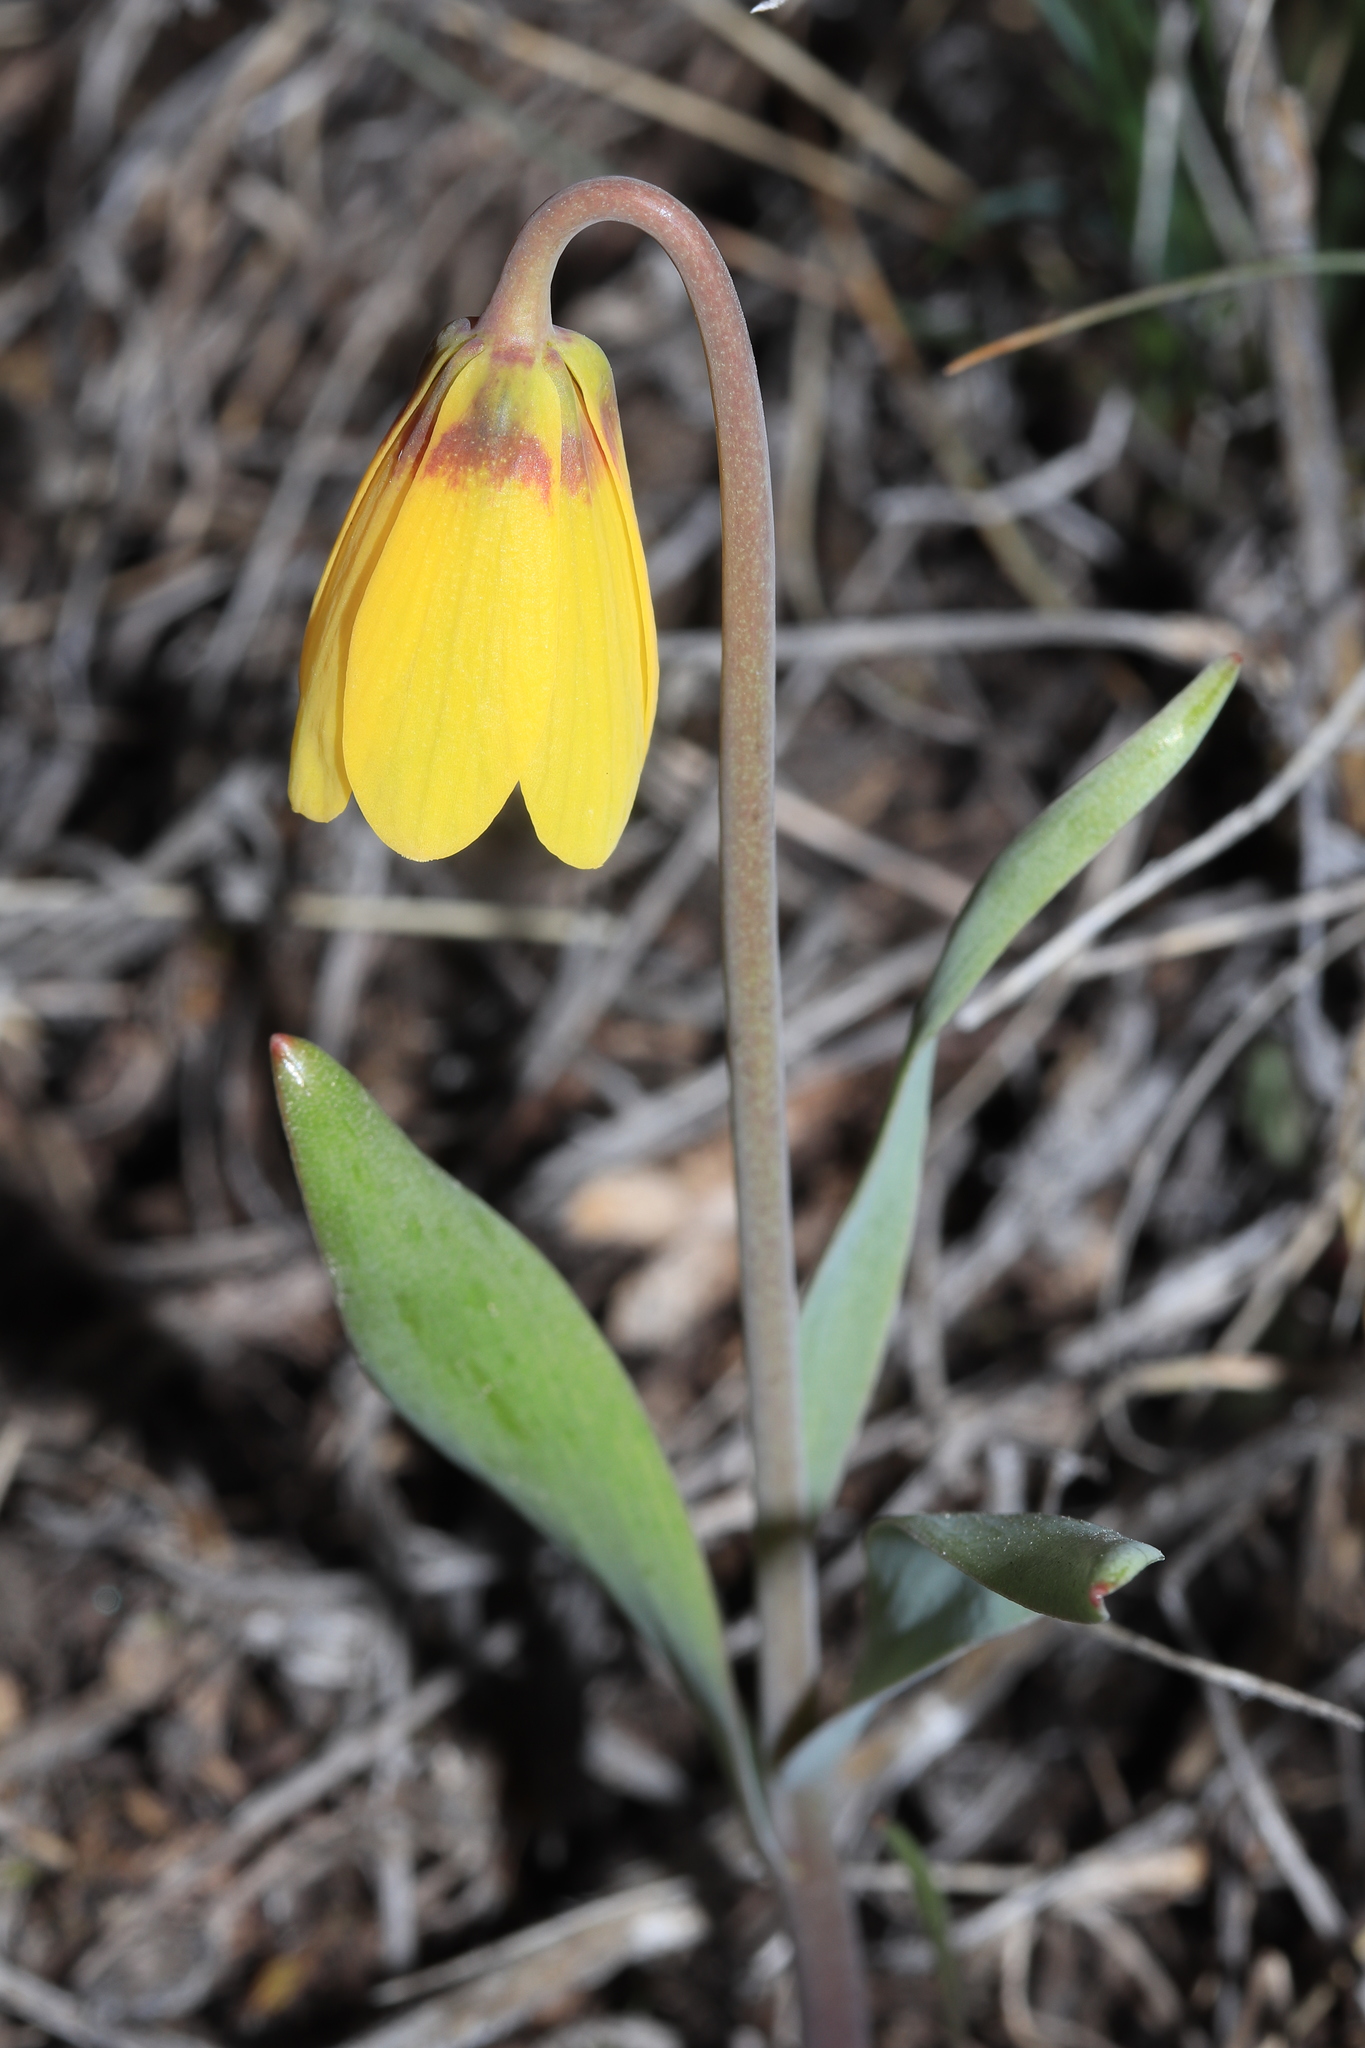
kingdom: Plantae
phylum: Tracheophyta
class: Liliopsida
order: Liliales
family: Liliaceae
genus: Fritillaria
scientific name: Fritillaria pudica
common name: Yellow fritillary
